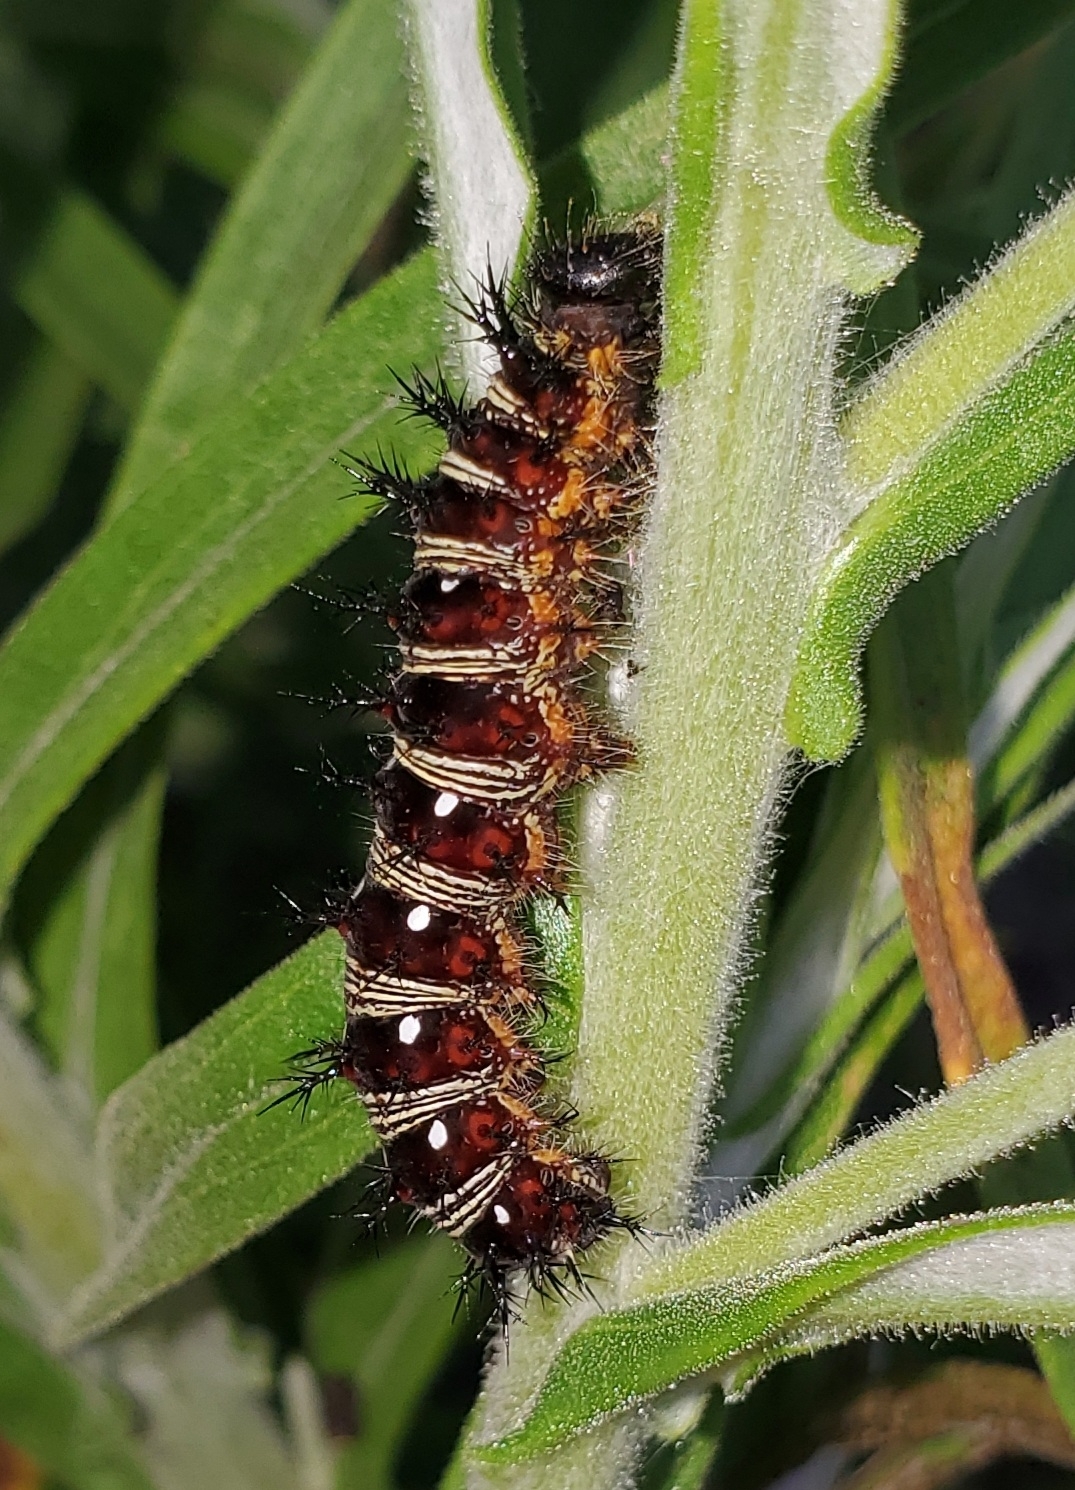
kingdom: Animalia
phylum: Arthropoda
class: Insecta
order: Lepidoptera
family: Nymphalidae
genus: Vanessa
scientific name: Vanessa virginiensis
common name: American lady
